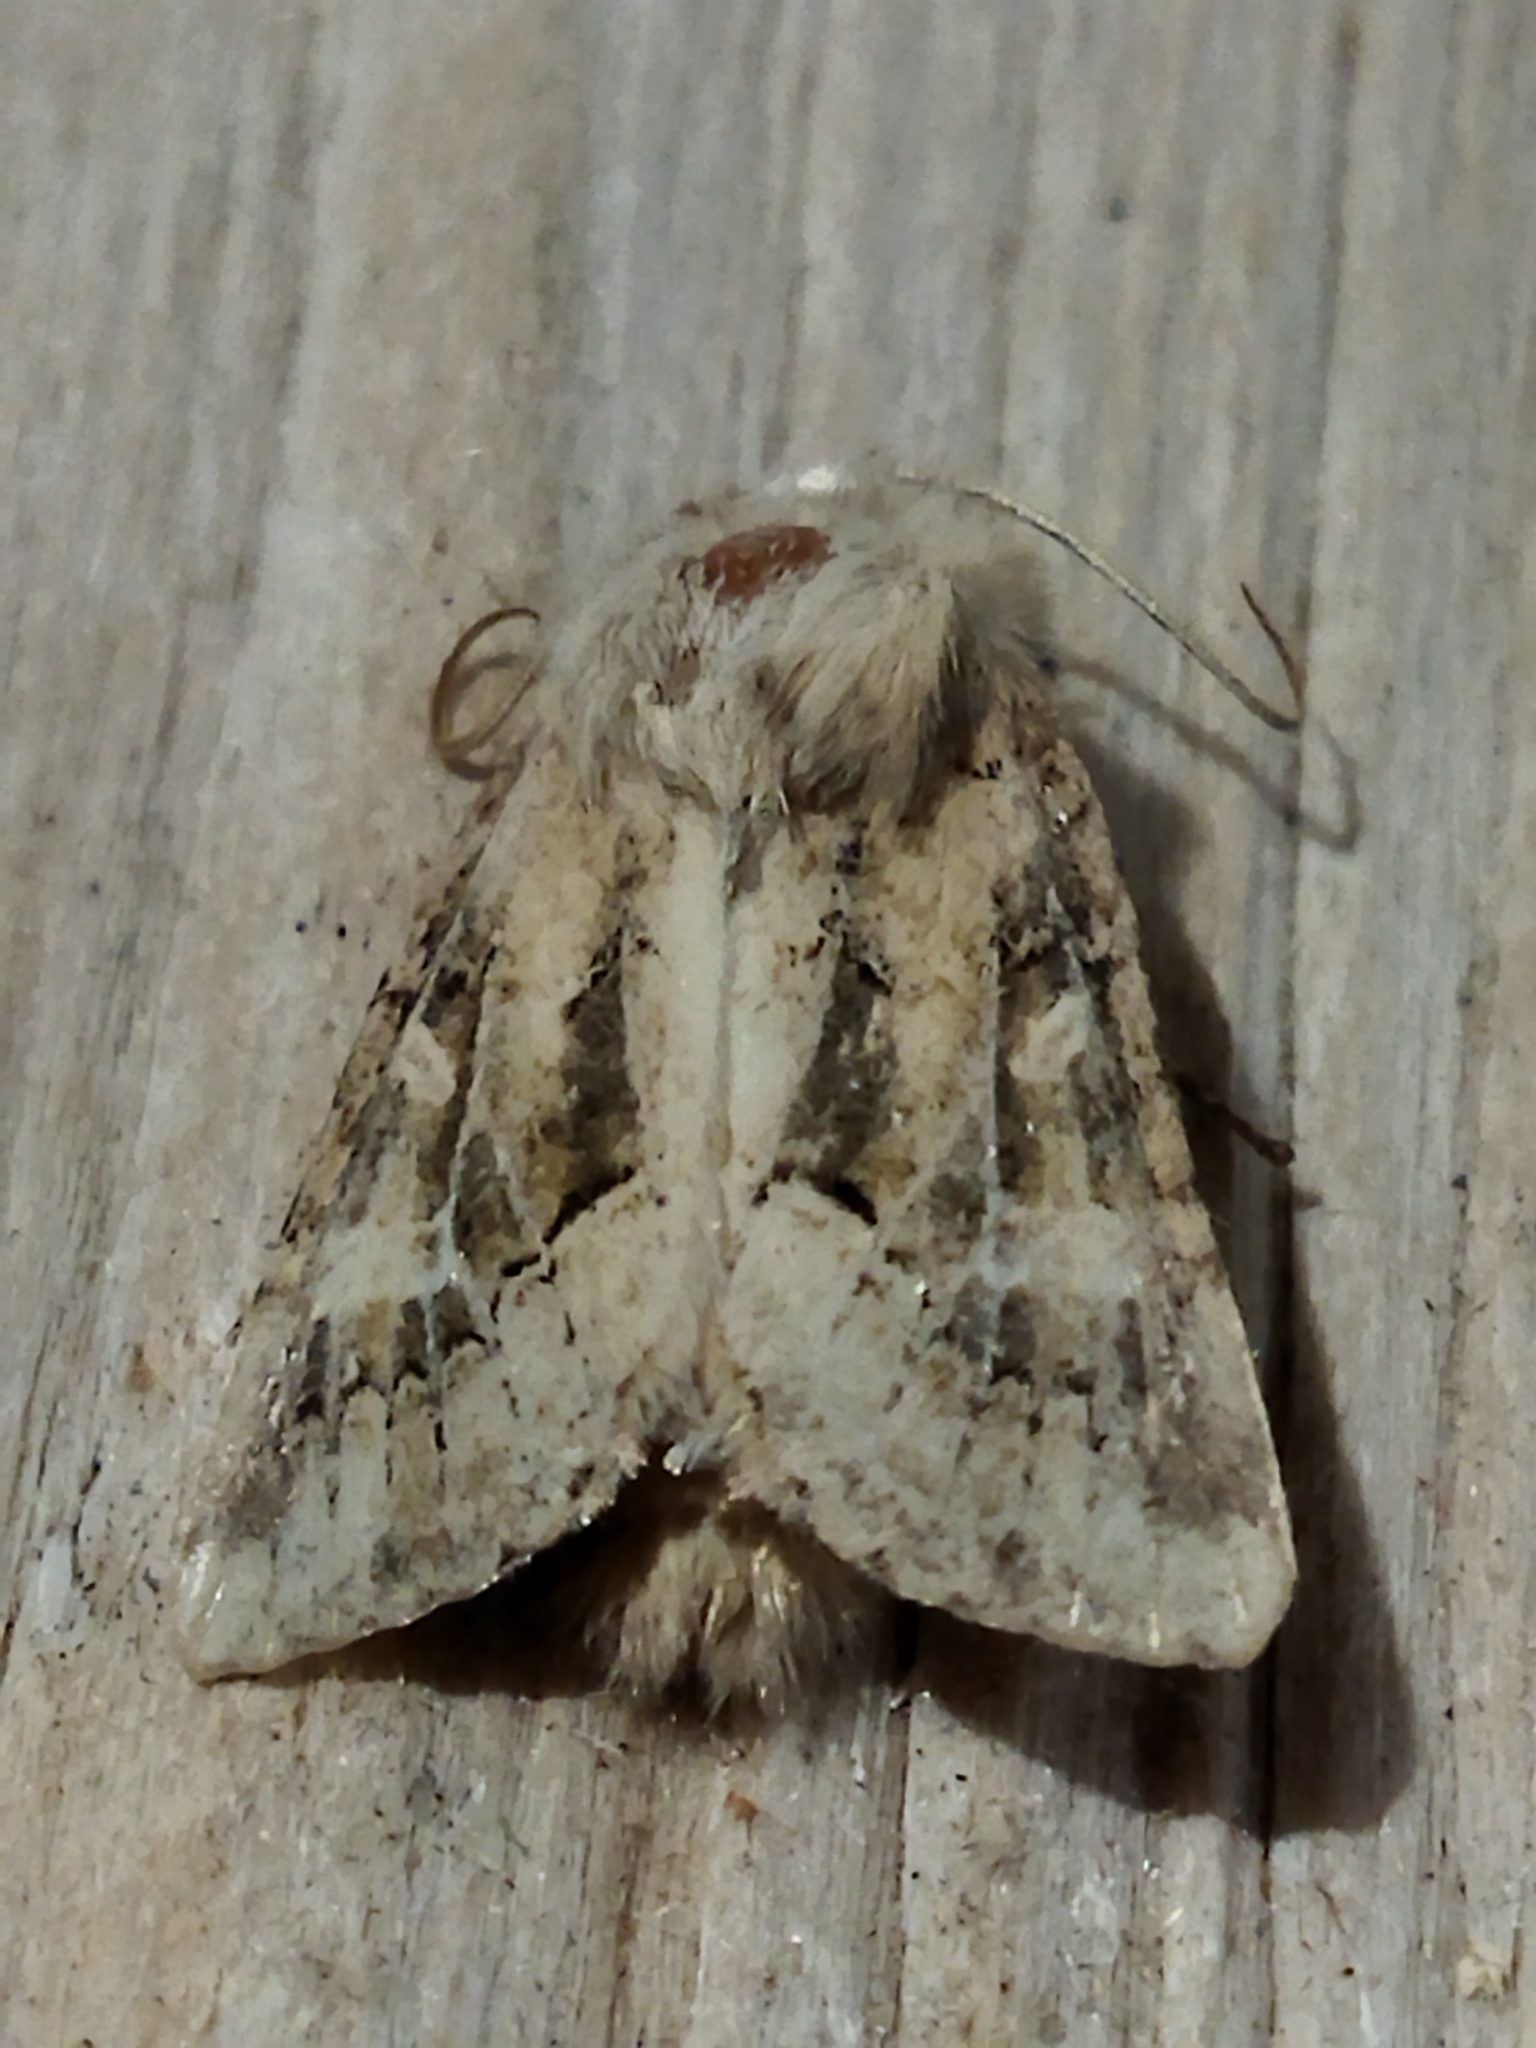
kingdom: Animalia
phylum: Arthropoda
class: Insecta
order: Lepidoptera
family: Noctuidae
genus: Luperina
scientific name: Luperina dumerilii
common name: Dumeril's rustic
